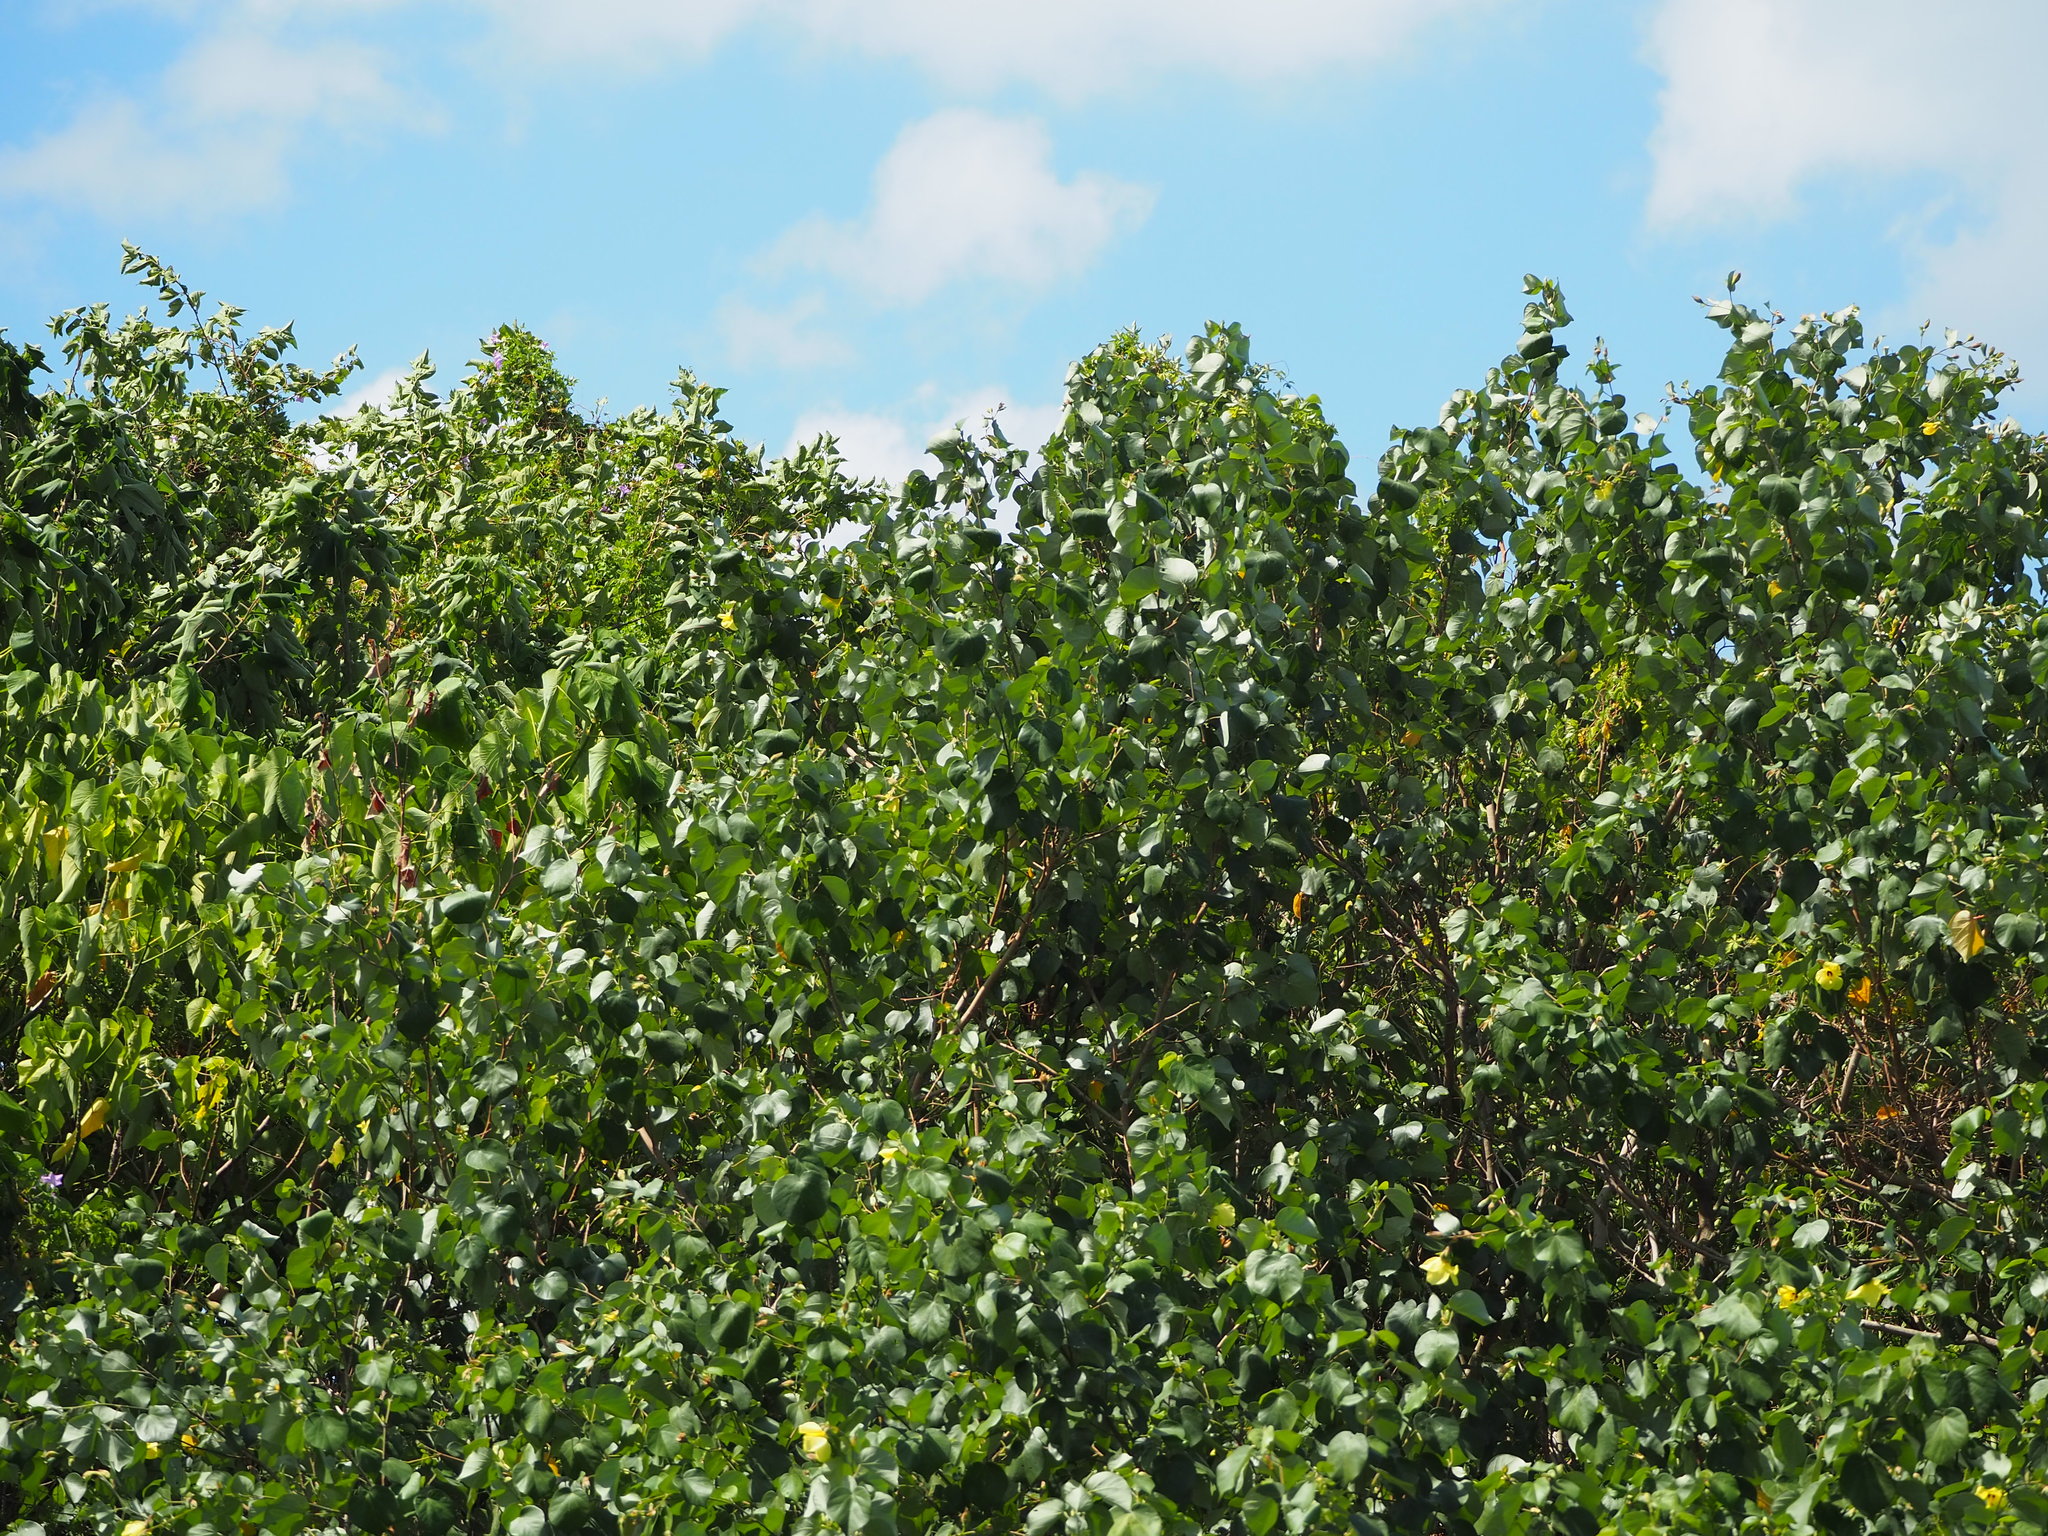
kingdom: Plantae
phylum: Tracheophyta
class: Magnoliopsida
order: Malvales
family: Malvaceae
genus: Talipariti
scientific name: Talipariti tiliaceum
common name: Sea hibiscus
